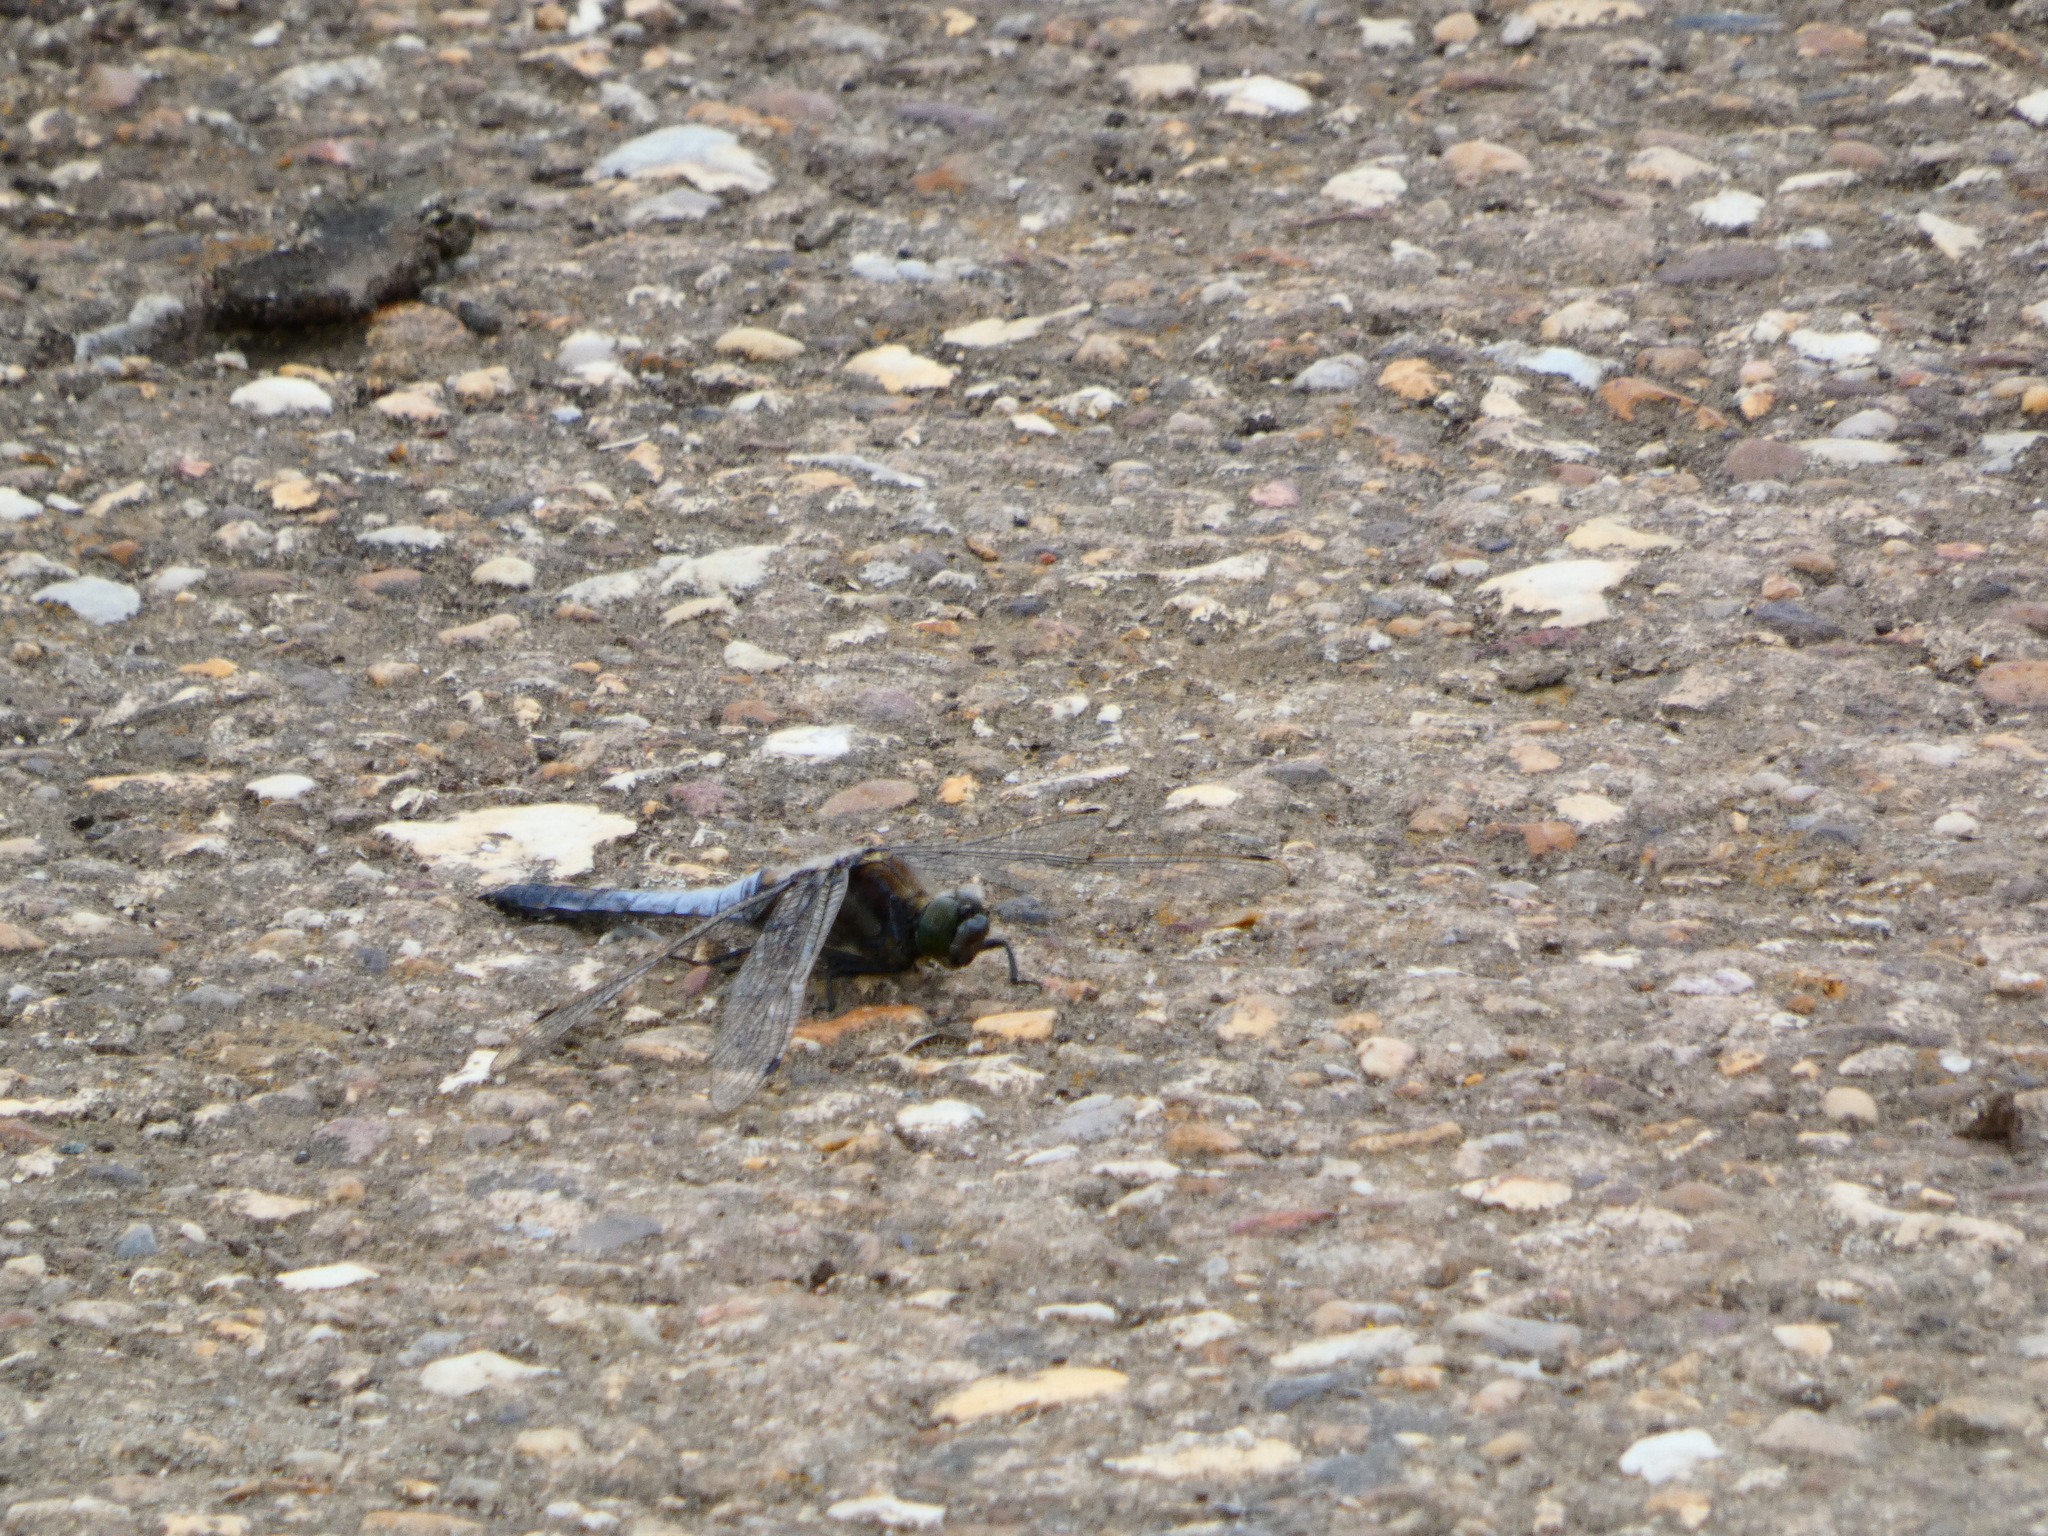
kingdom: Animalia
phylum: Arthropoda
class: Insecta
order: Odonata
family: Libellulidae
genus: Orthetrum
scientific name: Orthetrum cancellatum
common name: Black-tailed skimmer
